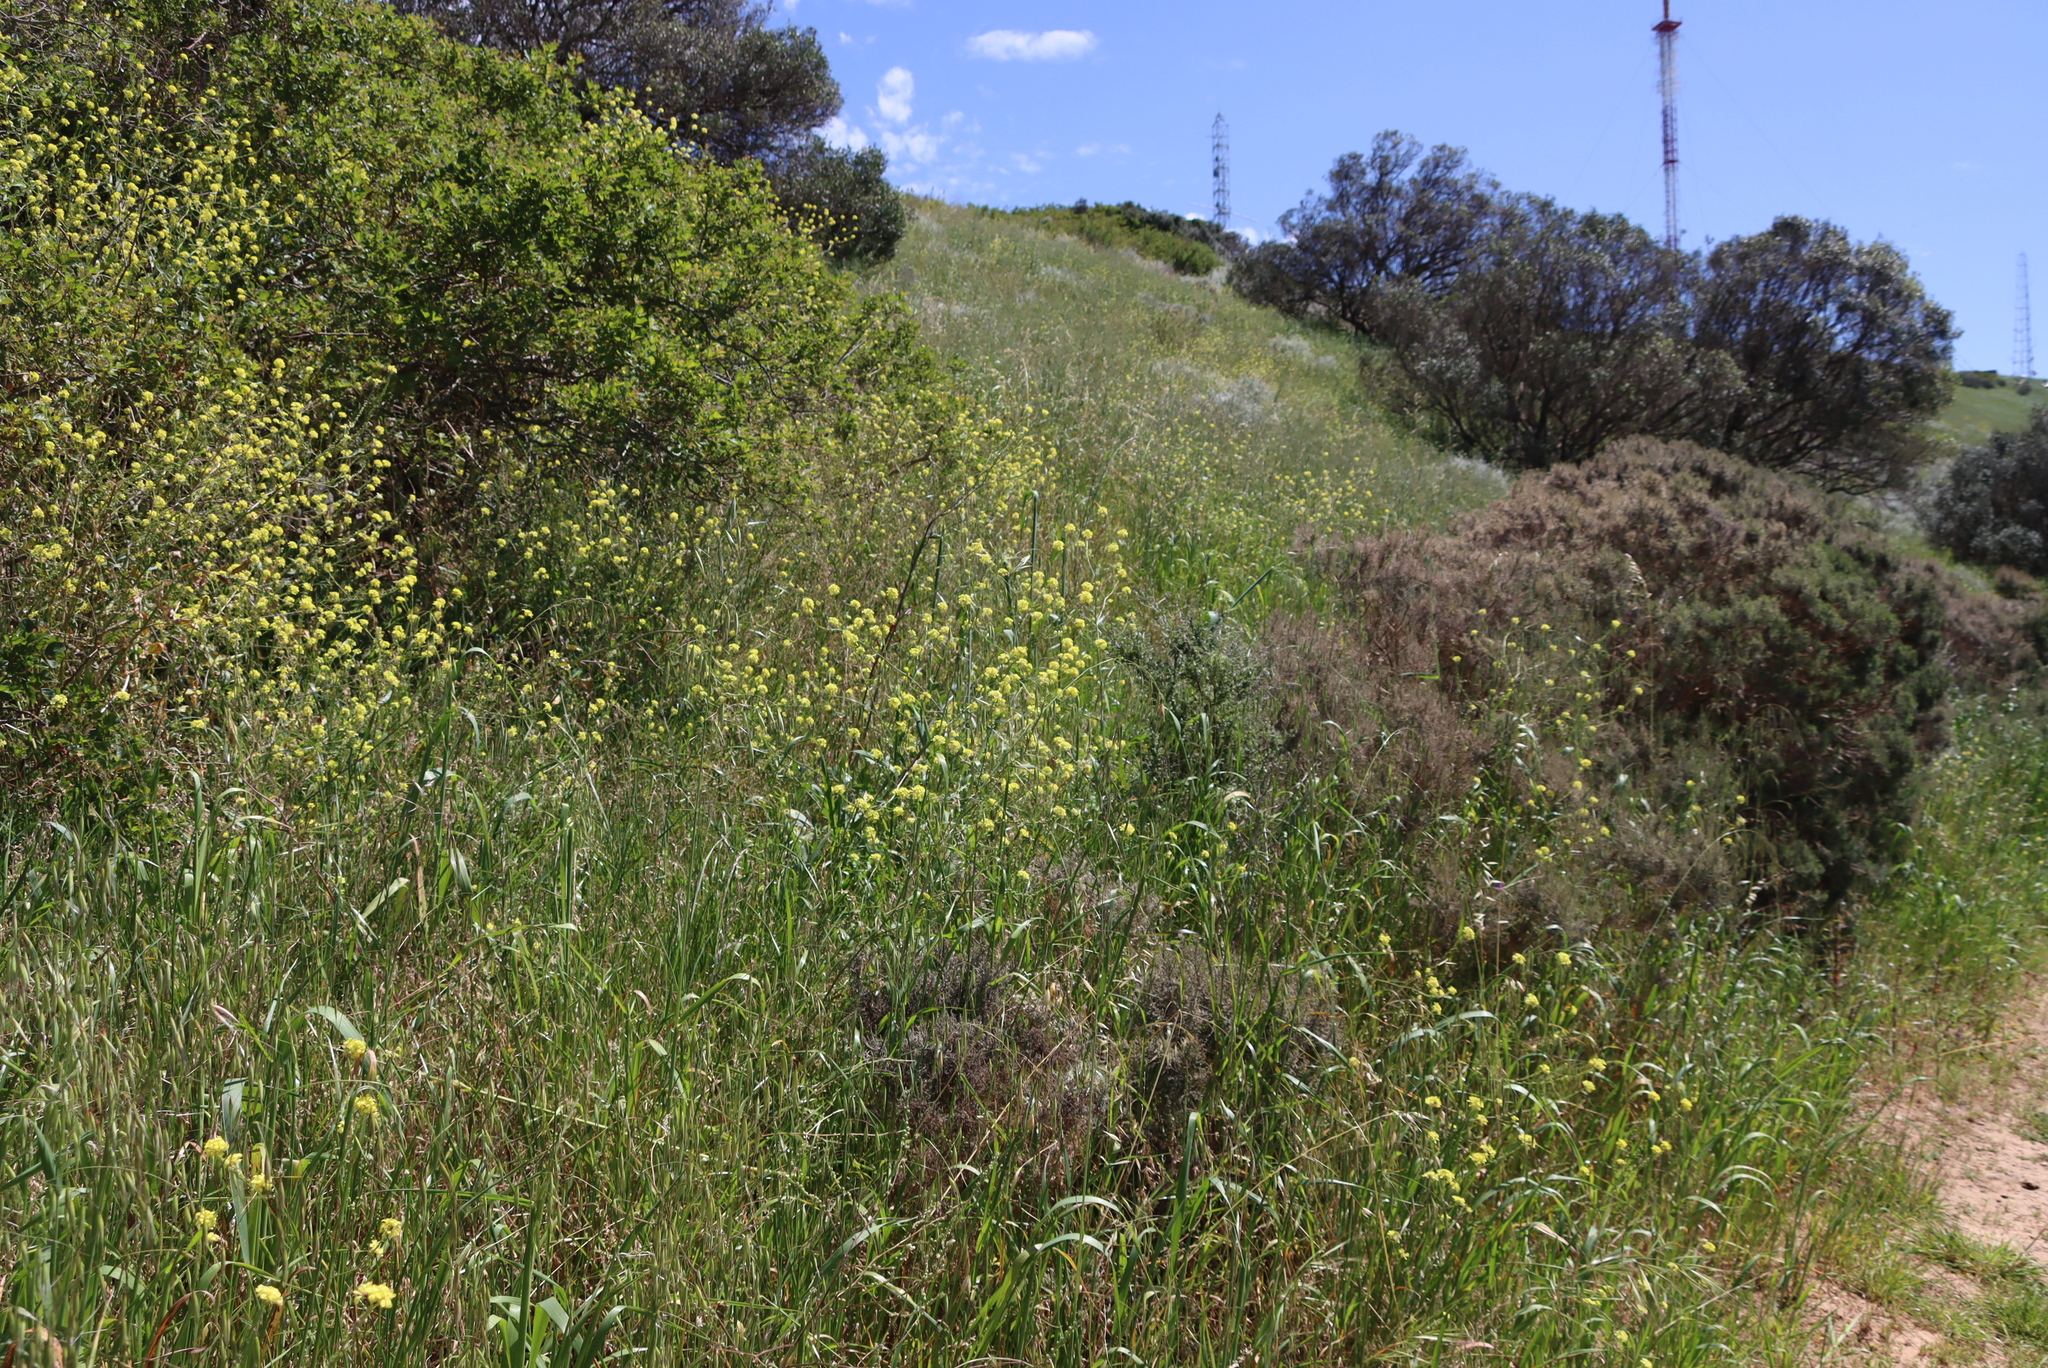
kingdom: Plantae
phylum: Tracheophyta
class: Magnoliopsida
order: Brassicales
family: Brassicaceae
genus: Rapistrum
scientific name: Rapistrum rugosum
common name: Annual bastardcabbage
